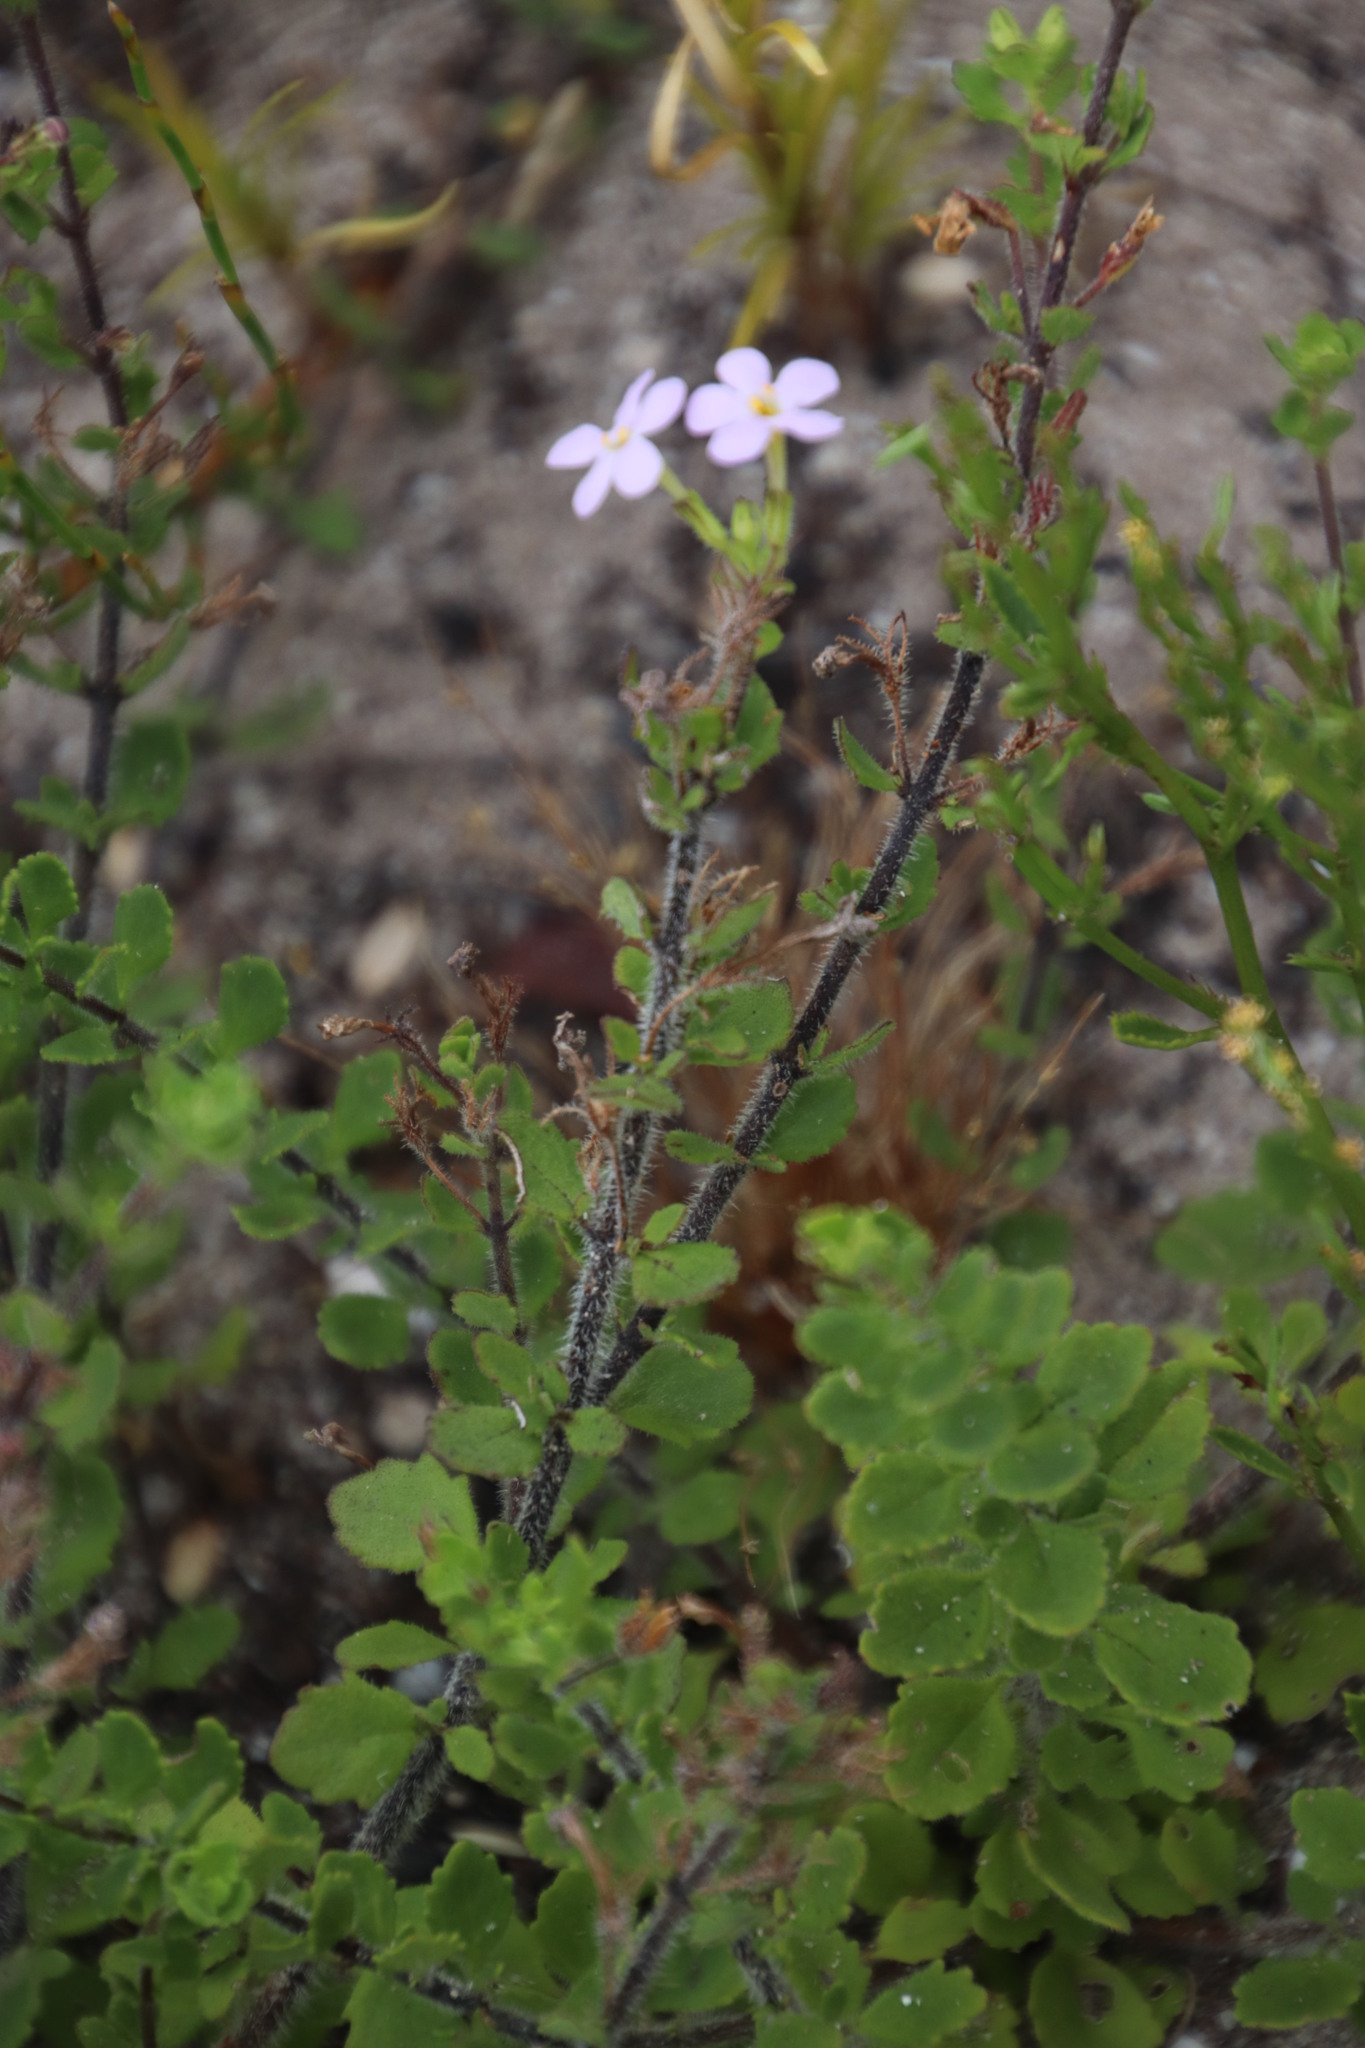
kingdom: Plantae
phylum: Tracheophyta
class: Magnoliopsida
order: Lamiales
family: Scrophulariaceae
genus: Chaenostoma
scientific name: Chaenostoma hispidum
